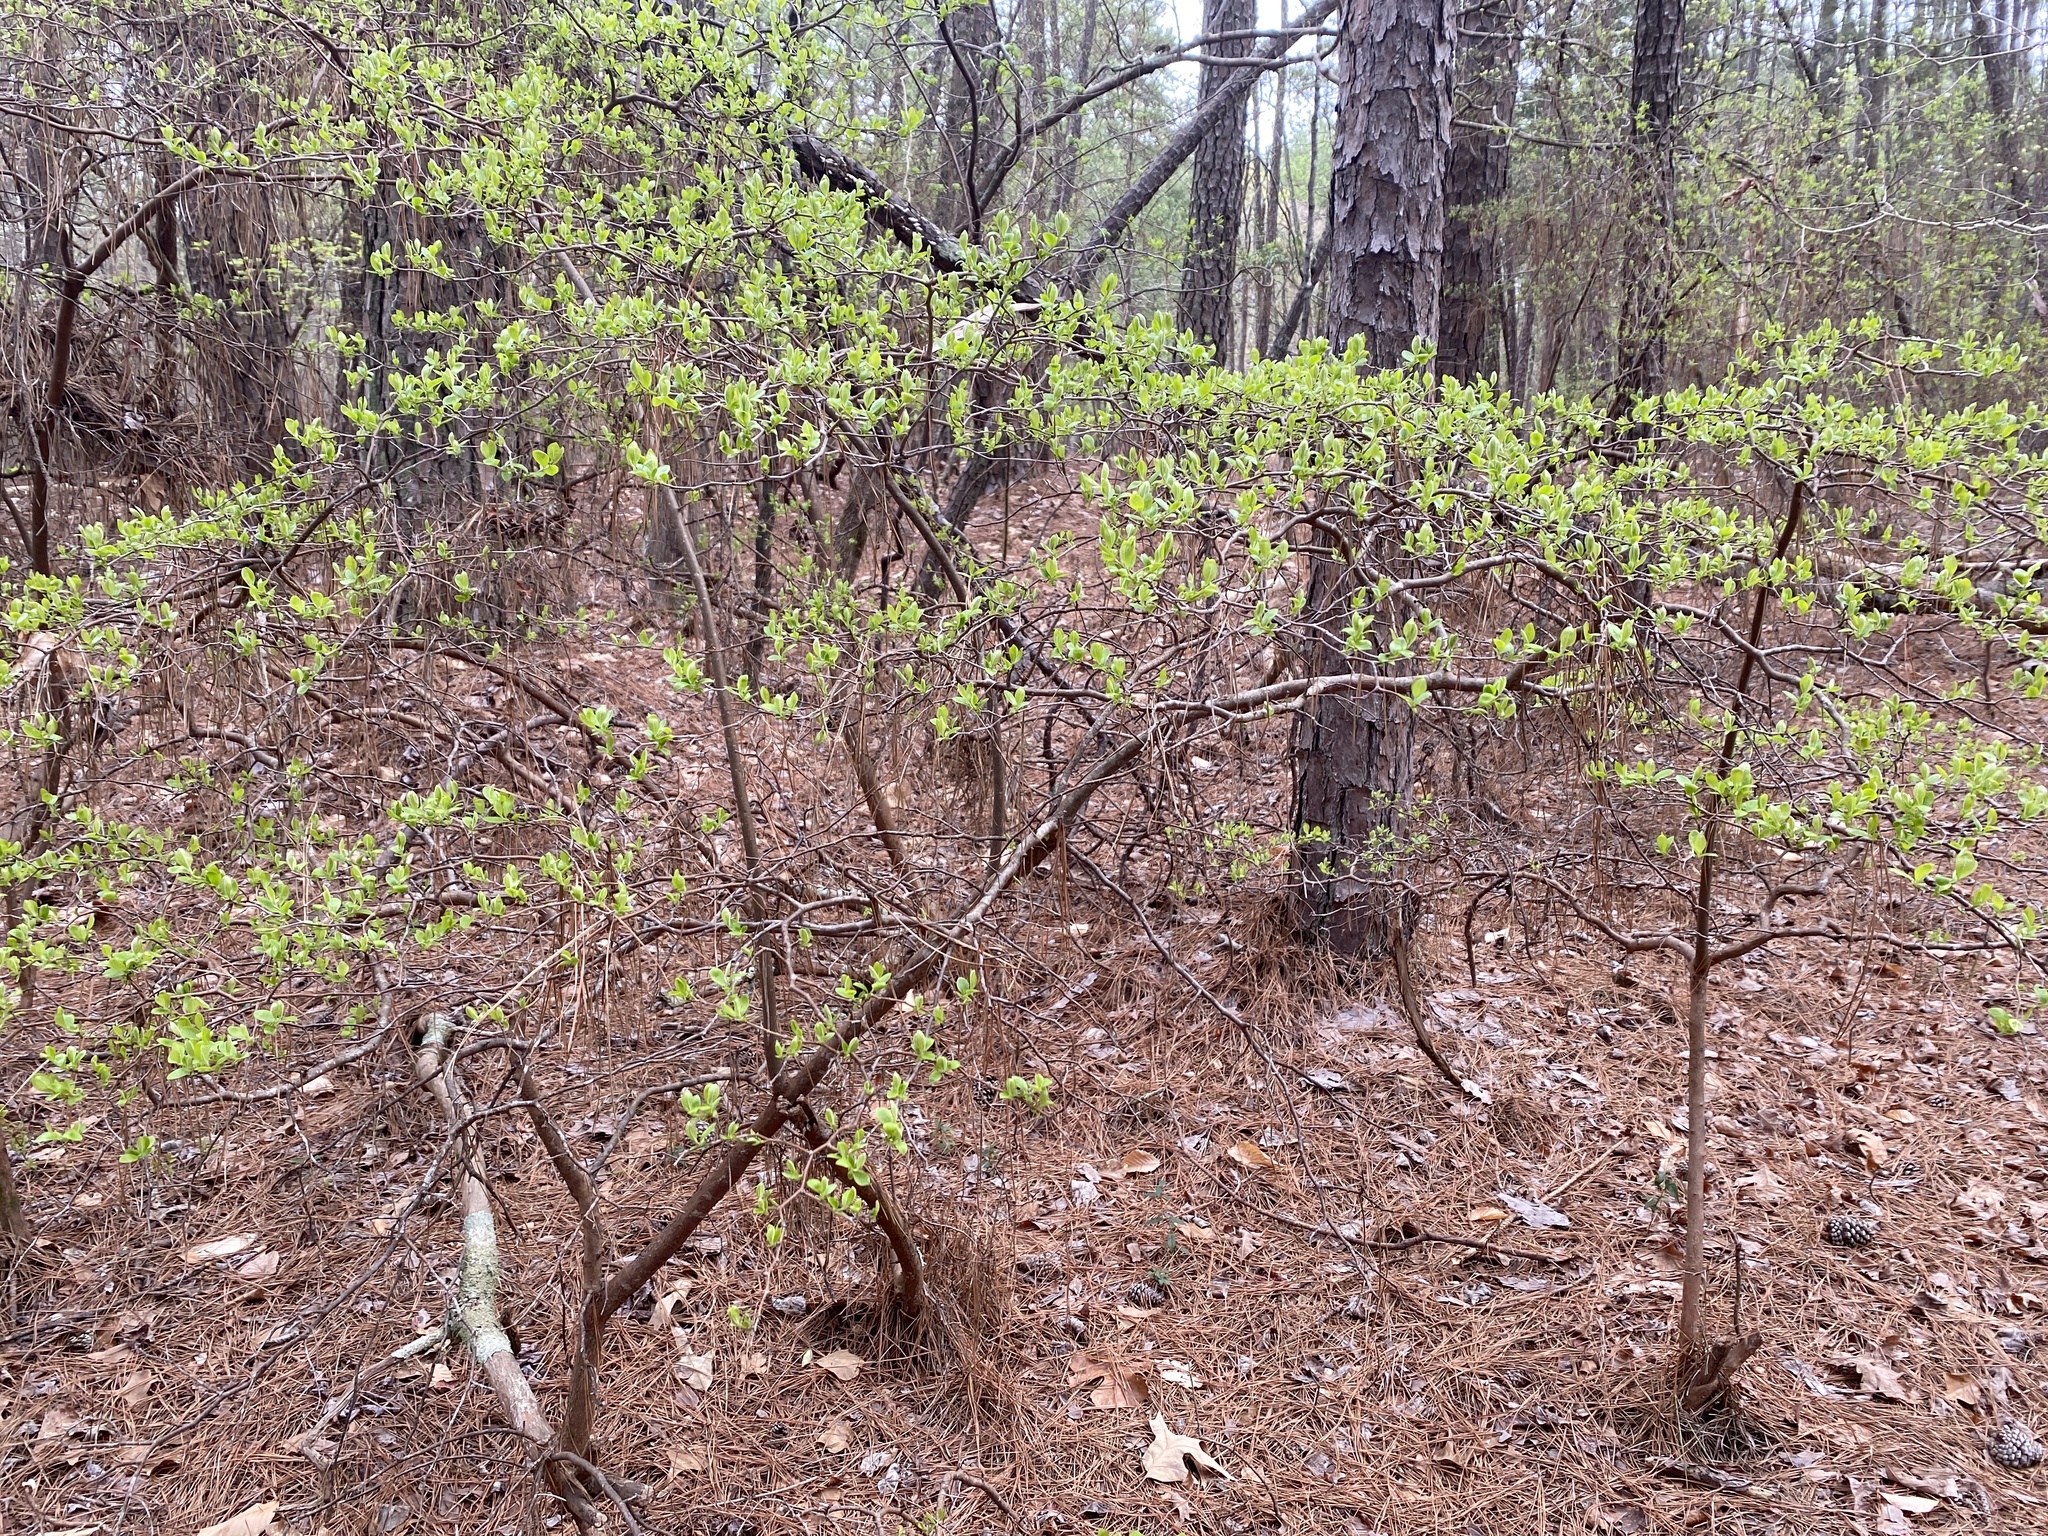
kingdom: Plantae
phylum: Tracheophyta
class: Magnoliopsida
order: Ericales
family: Ericaceae
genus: Vaccinium
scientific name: Vaccinium arboreum
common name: Farkleberry
